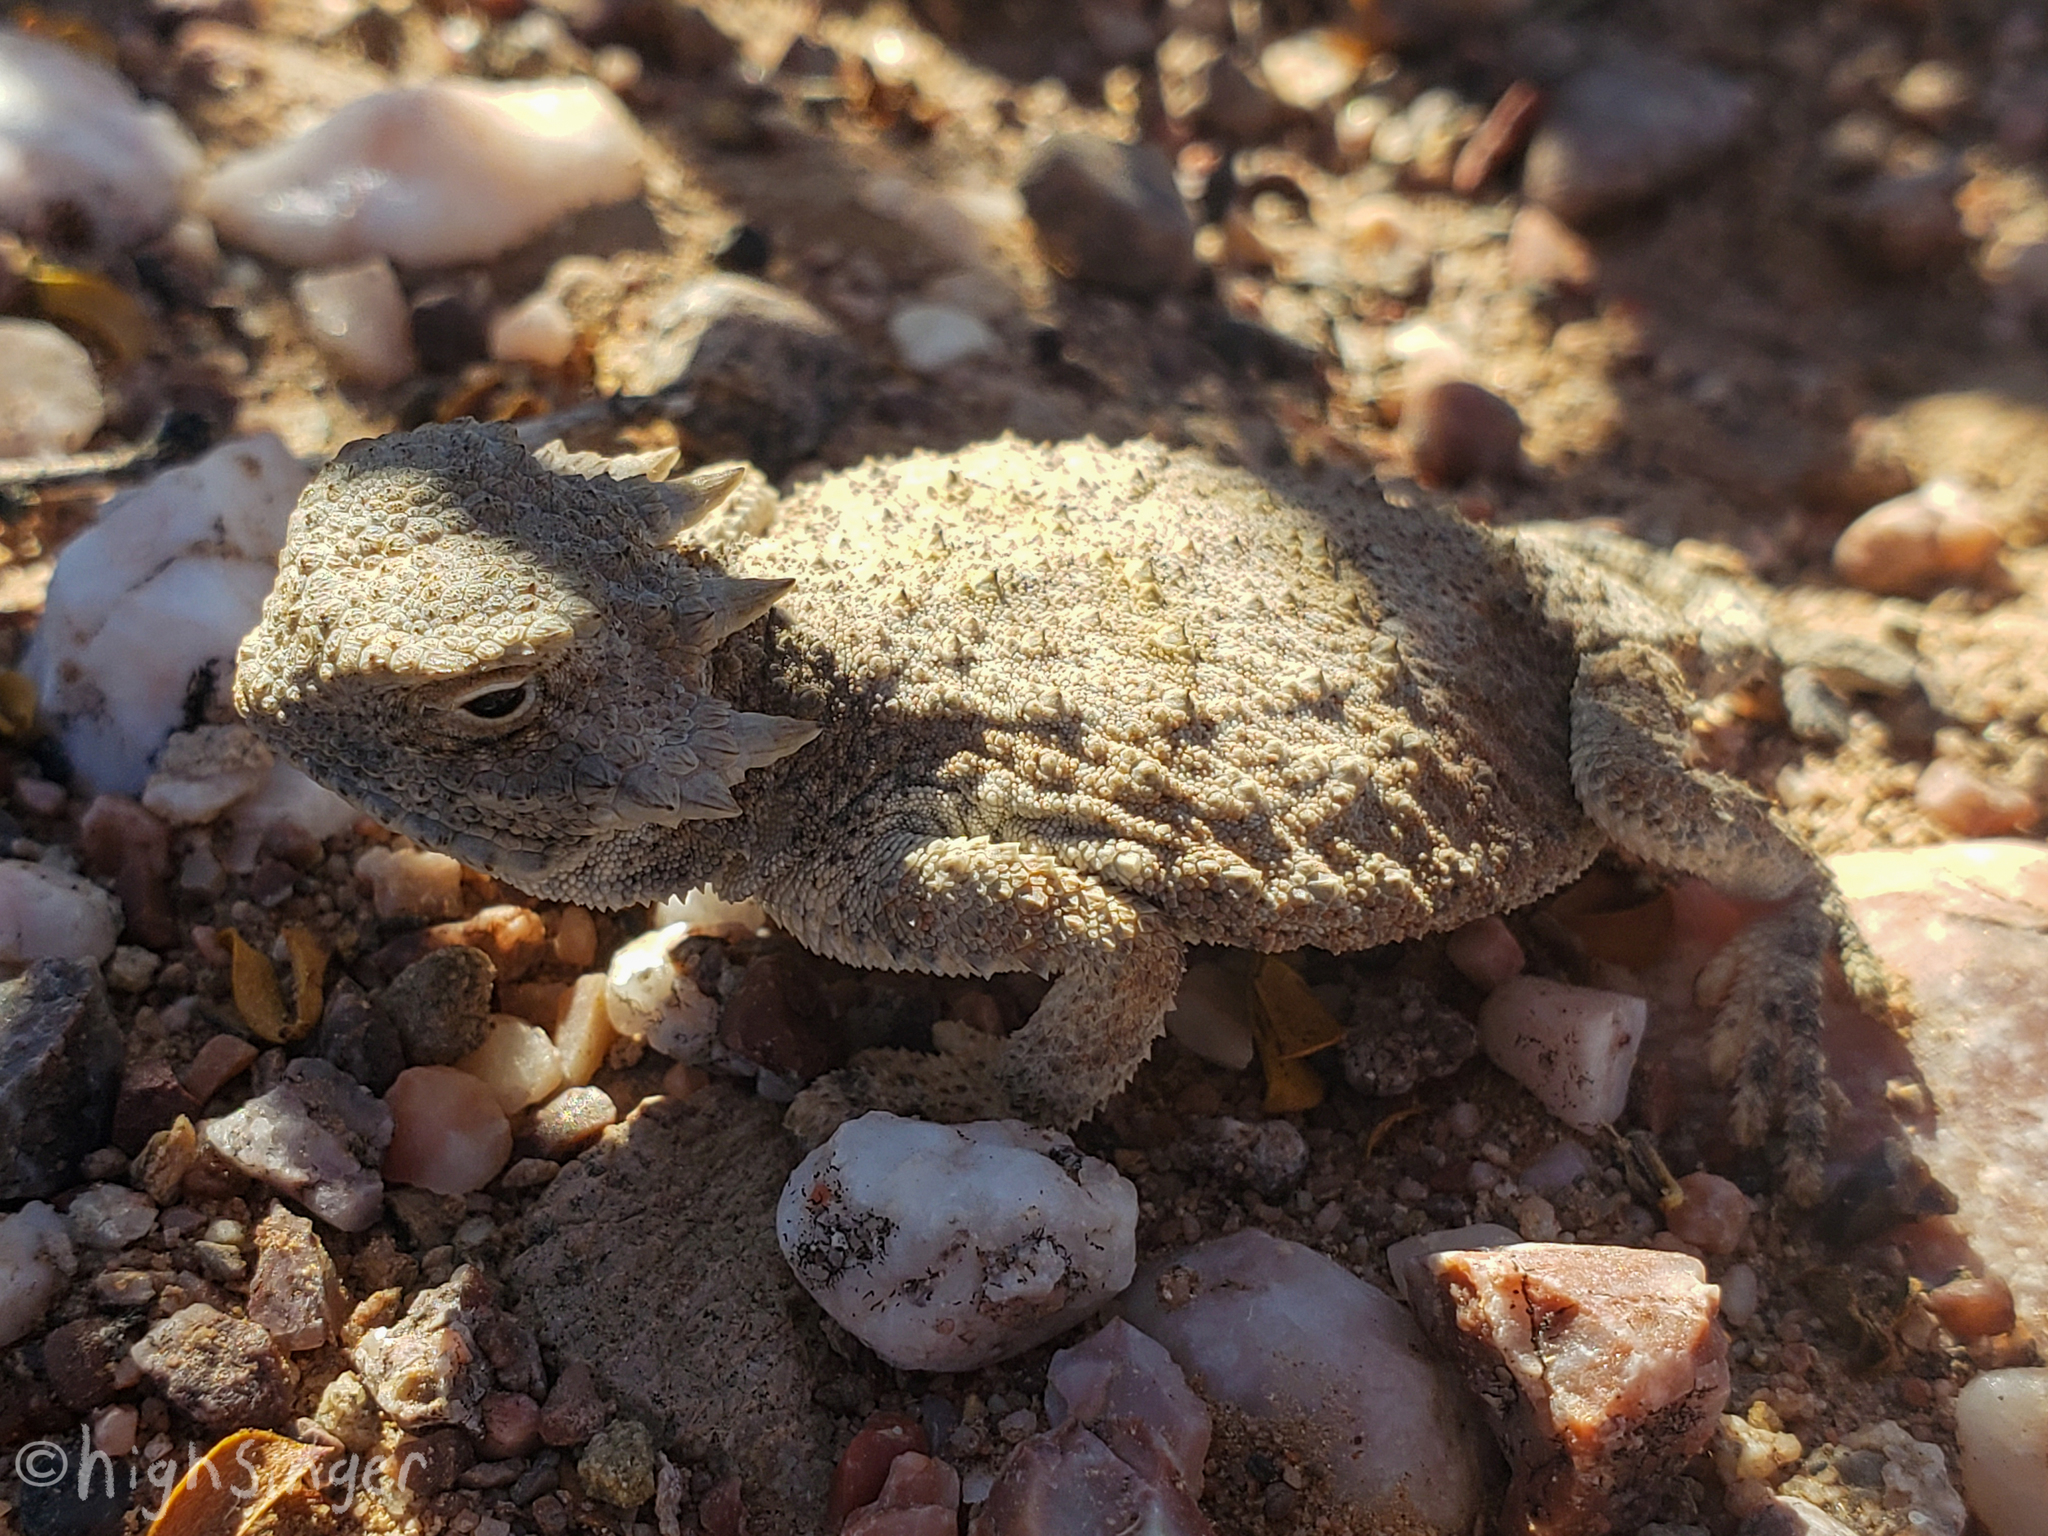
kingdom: Animalia
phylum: Chordata
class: Squamata
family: Phrynosomatidae
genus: Phrynosoma
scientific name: Phrynosoma modestum
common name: Roundtail horned lizard
